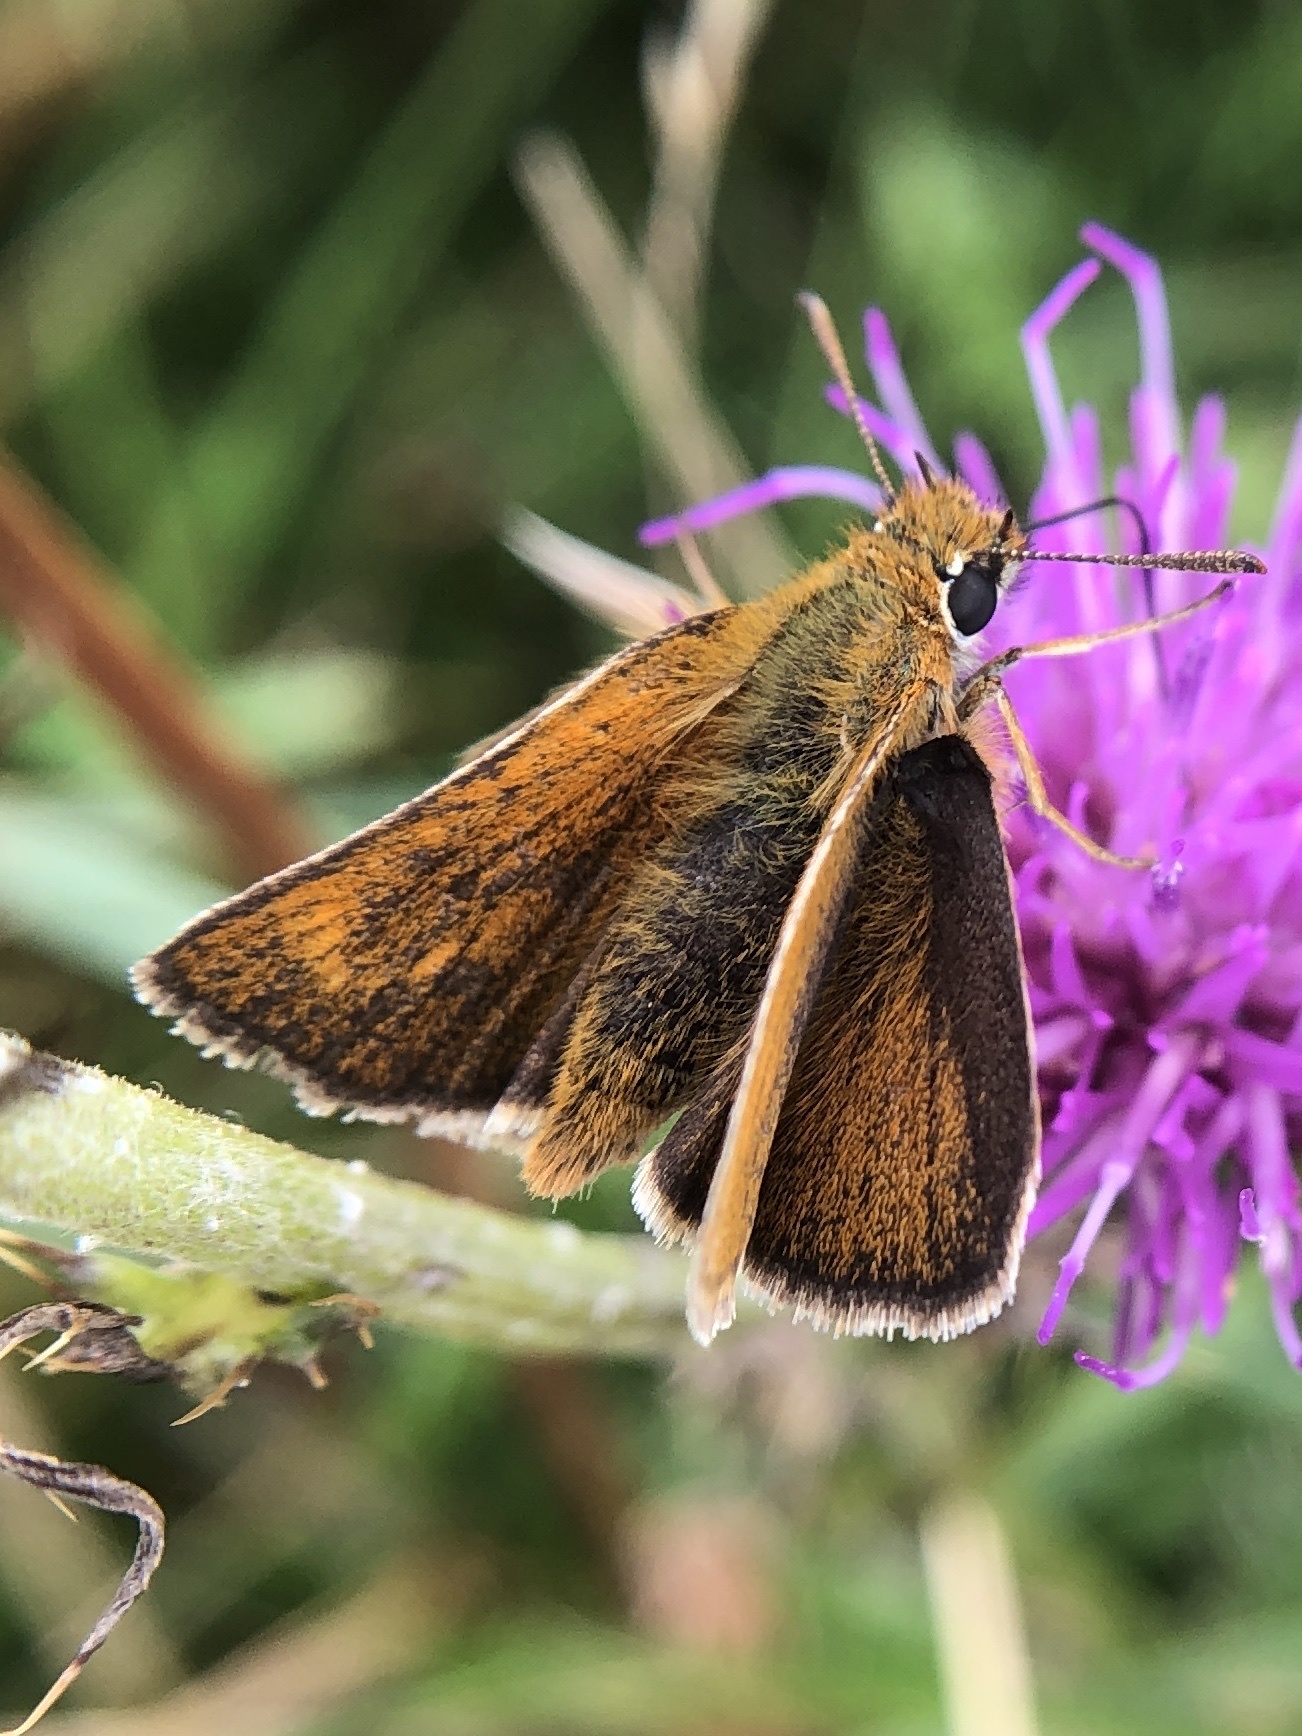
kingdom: Animalia
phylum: Arthropoda
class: Insecta
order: Lepidoptera
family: Hesperiidae
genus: Thymelicus
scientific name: Thymelicus acteon
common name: Lulworth skipper
